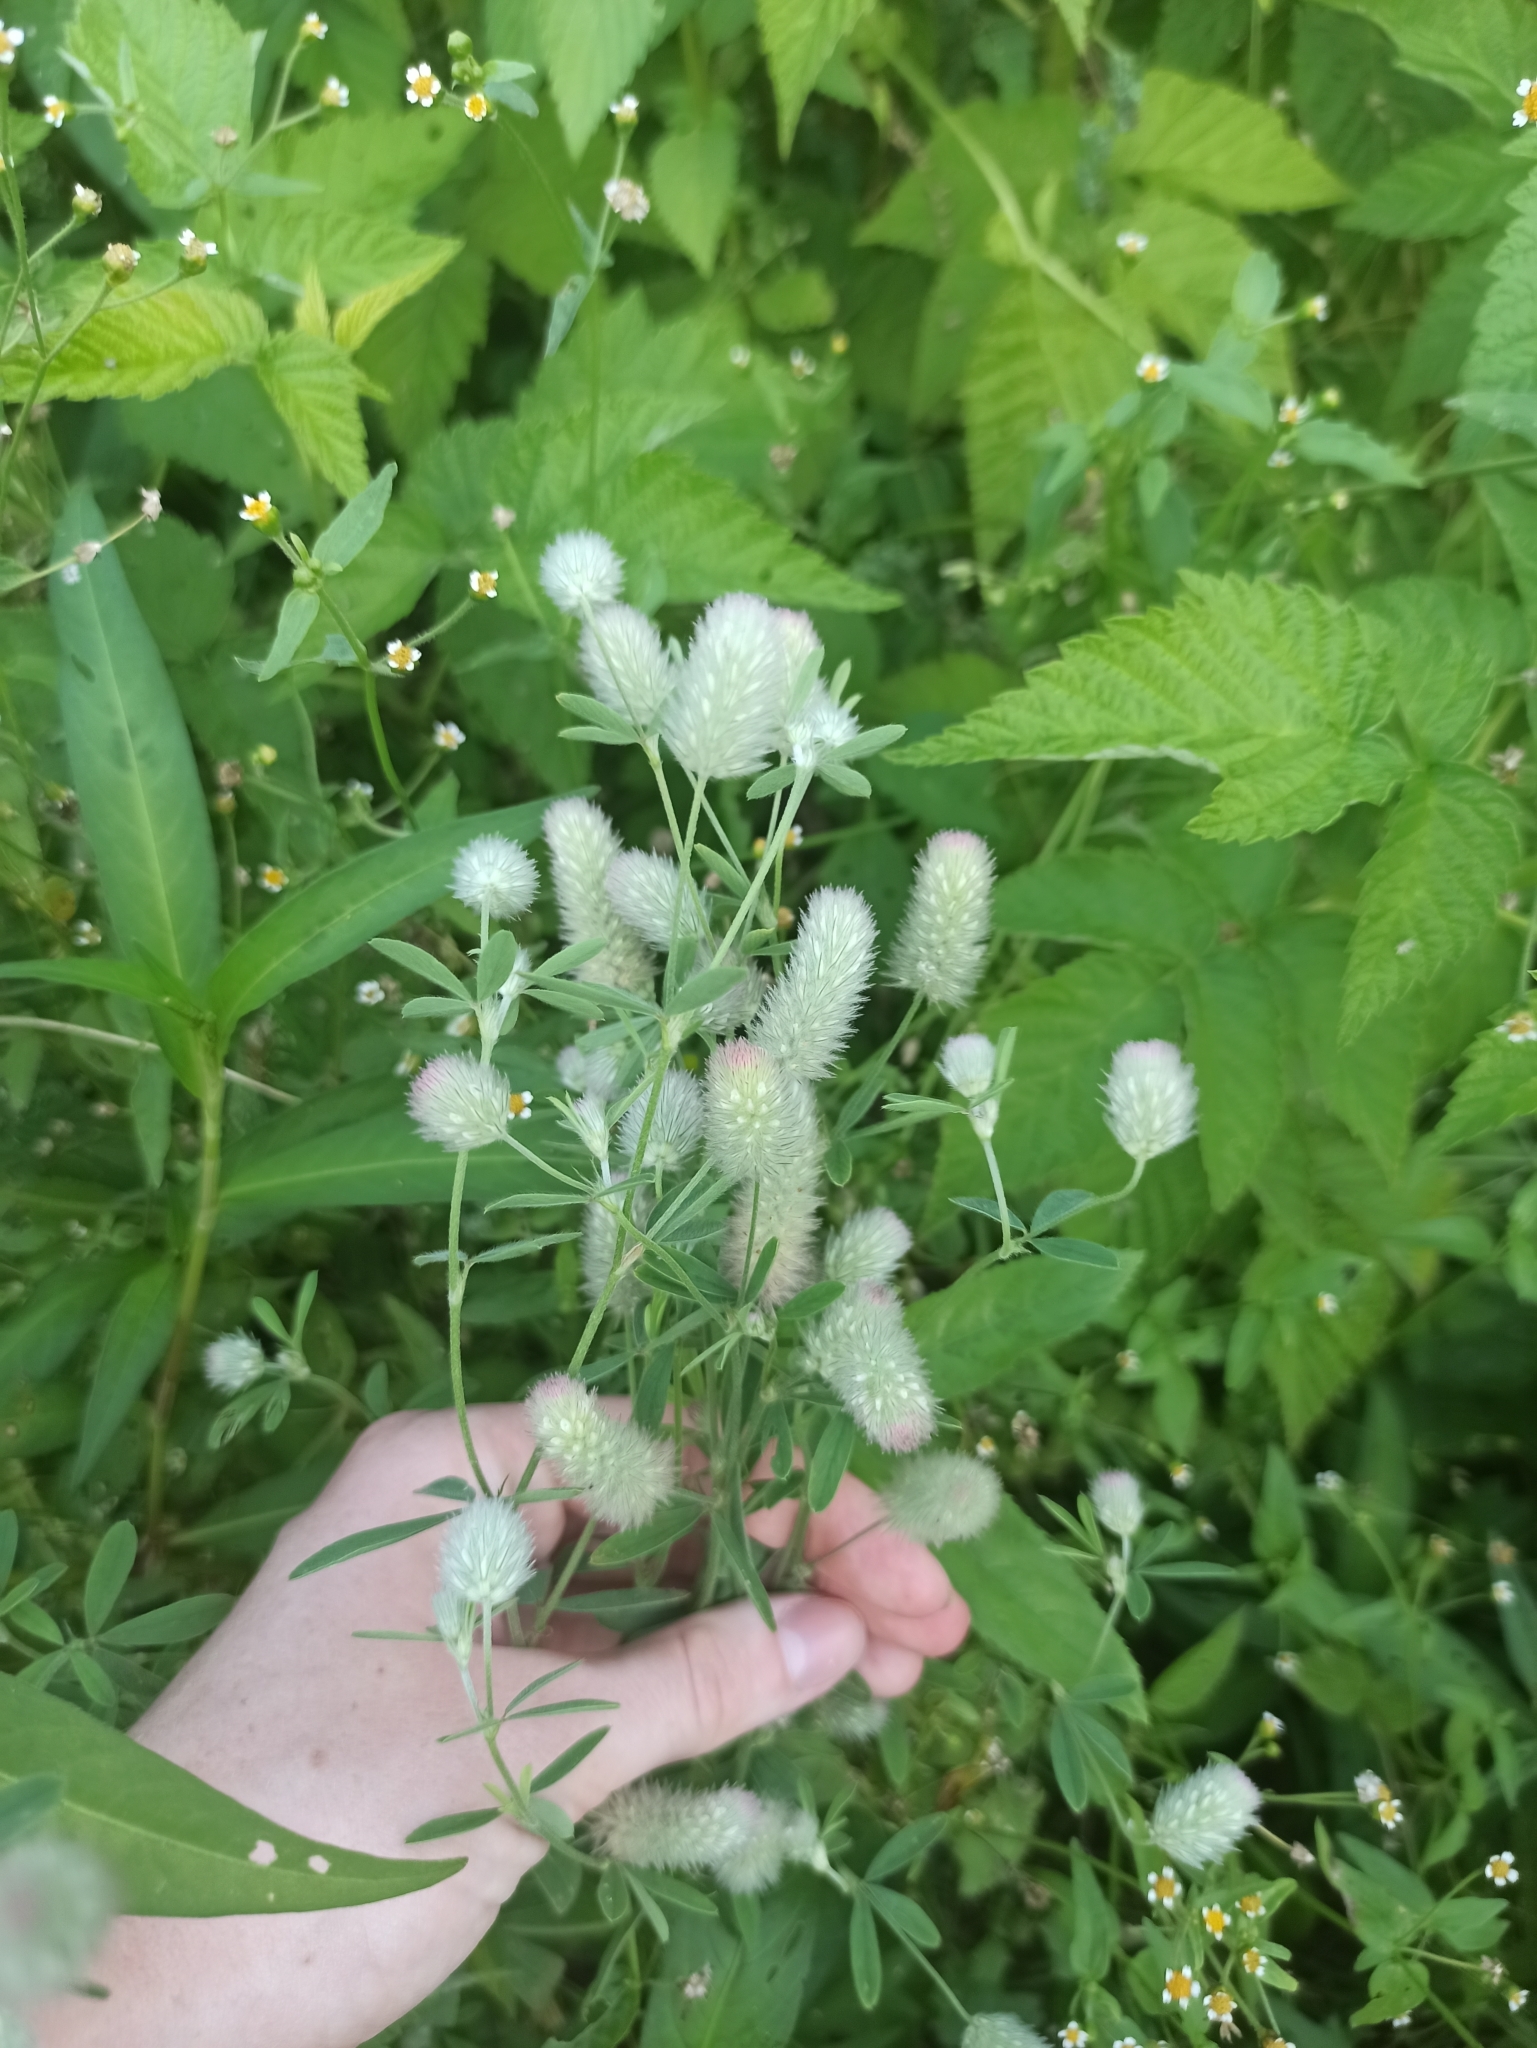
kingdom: Plantae
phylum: Tracheophyta
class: Magnoliopsida
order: Fabales
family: Fabaceae
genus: Trifolium
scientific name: Trifolium arvense
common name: Hare's-foot clover
